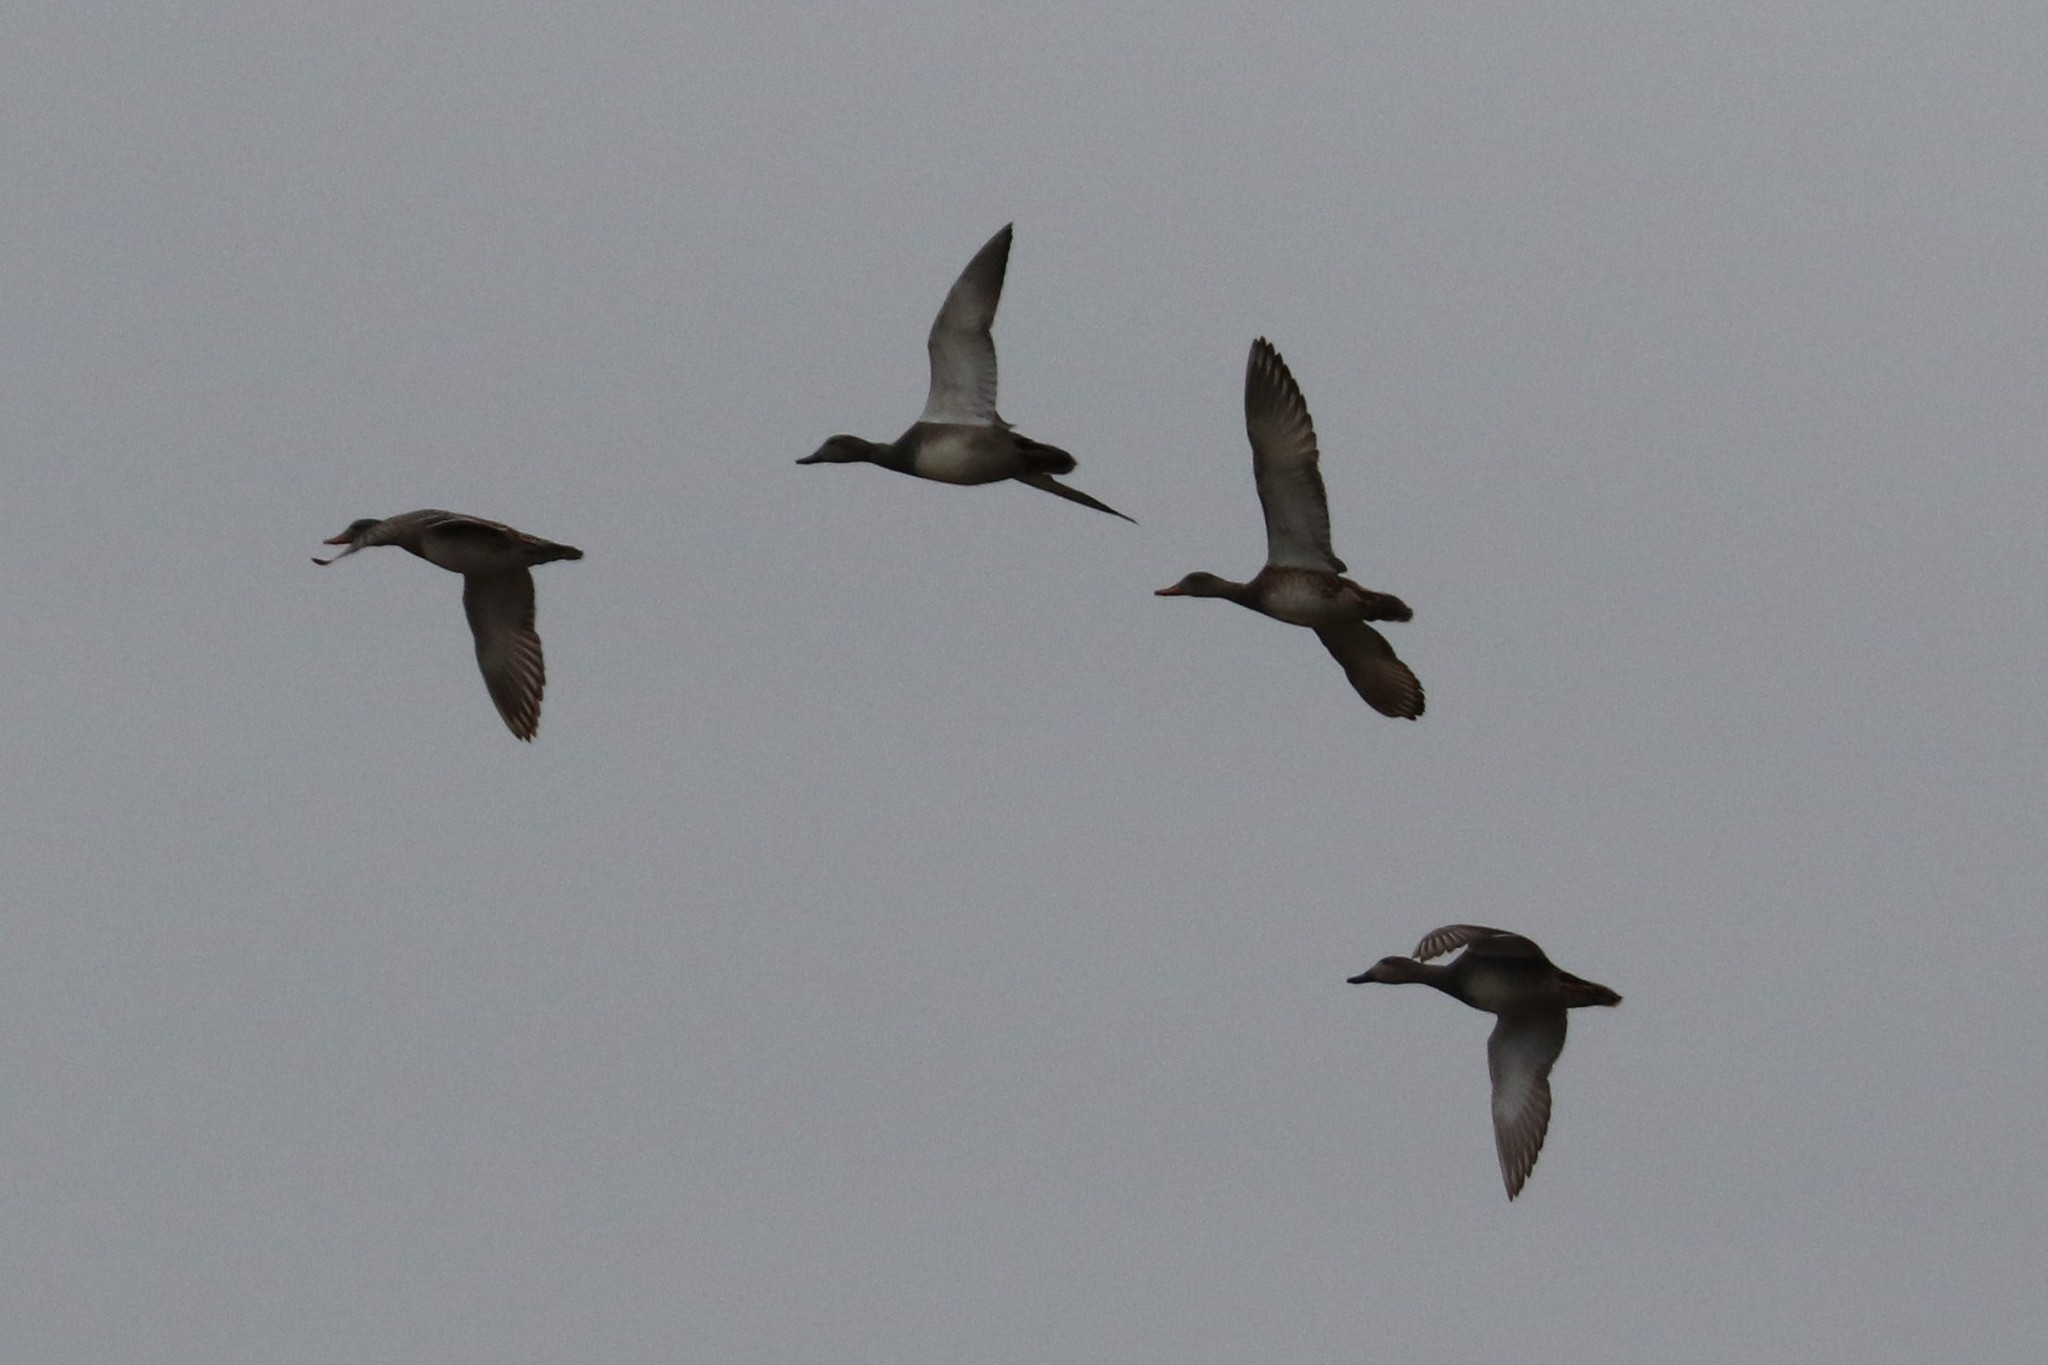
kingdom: Animalia
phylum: Chordata
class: Aves
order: Anseriformes
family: Anatidae
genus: Mareca
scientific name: Mareca strepera
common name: Gadwall
